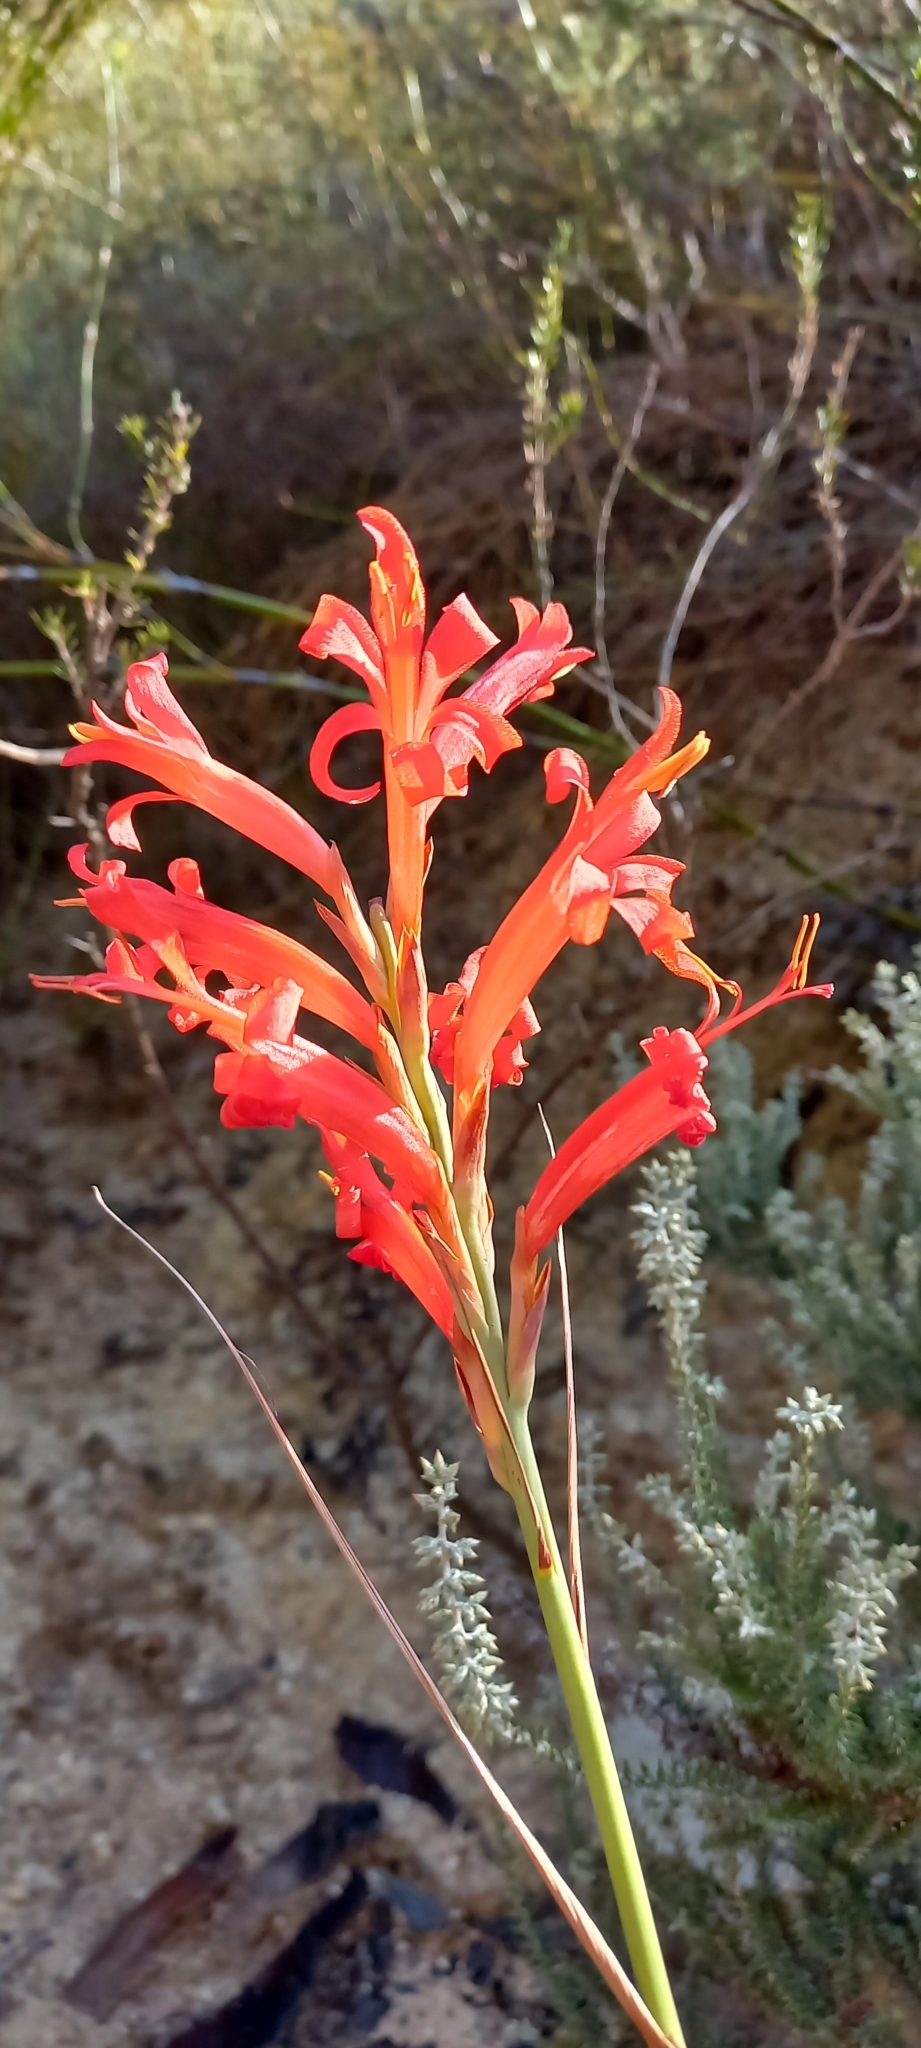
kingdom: Plantae
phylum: Tracheophyta
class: Liliopsida
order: Asparagales
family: Iridaceae
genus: Tritoniopsis
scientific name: Tritoniopsis triticea
